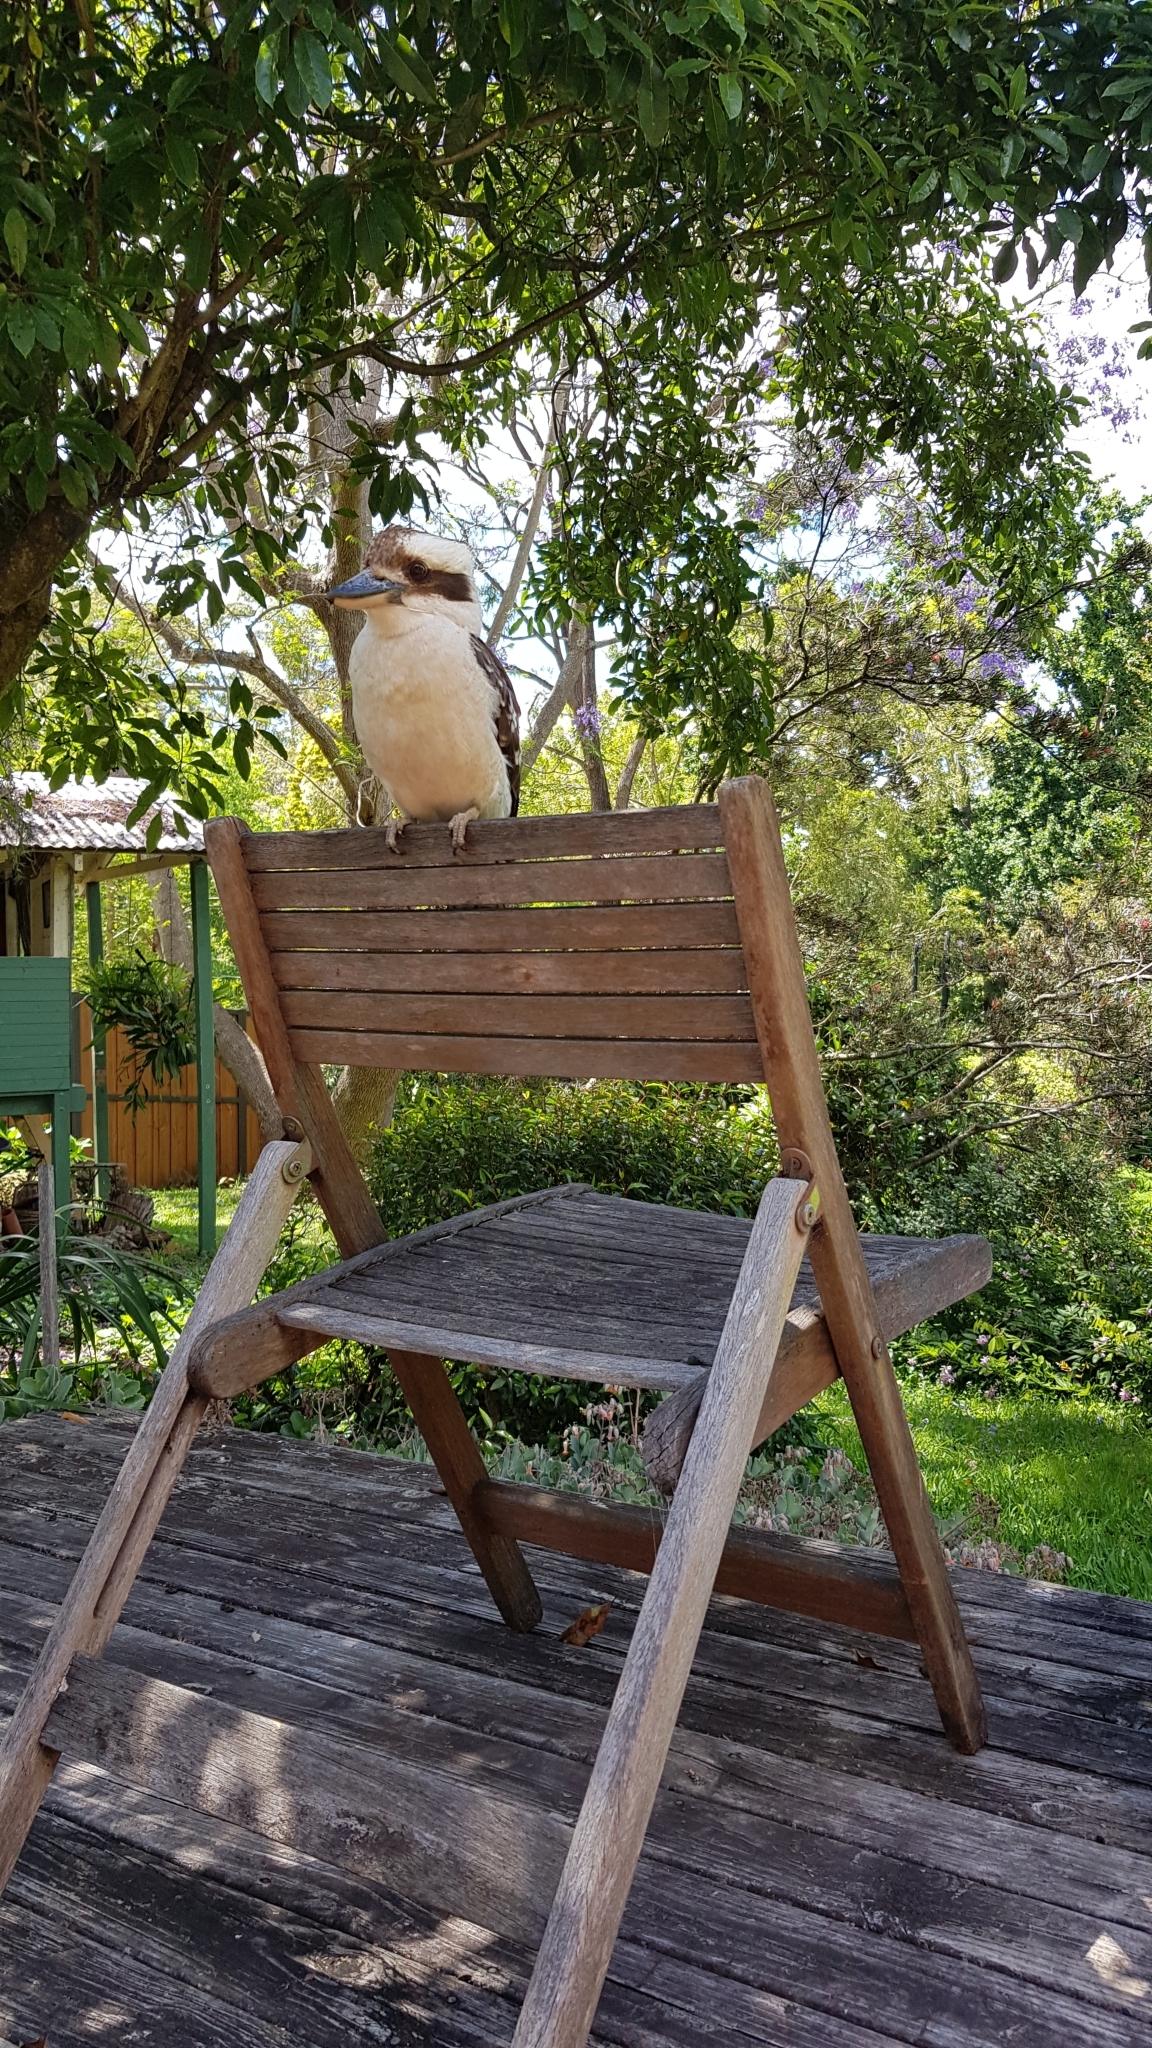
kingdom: Animalia
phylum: Chordata
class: Aves
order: Coraciiformes
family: Alcedinidae
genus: Dacelo
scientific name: Dacelo novaeguineae
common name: Laughing kookaburra
